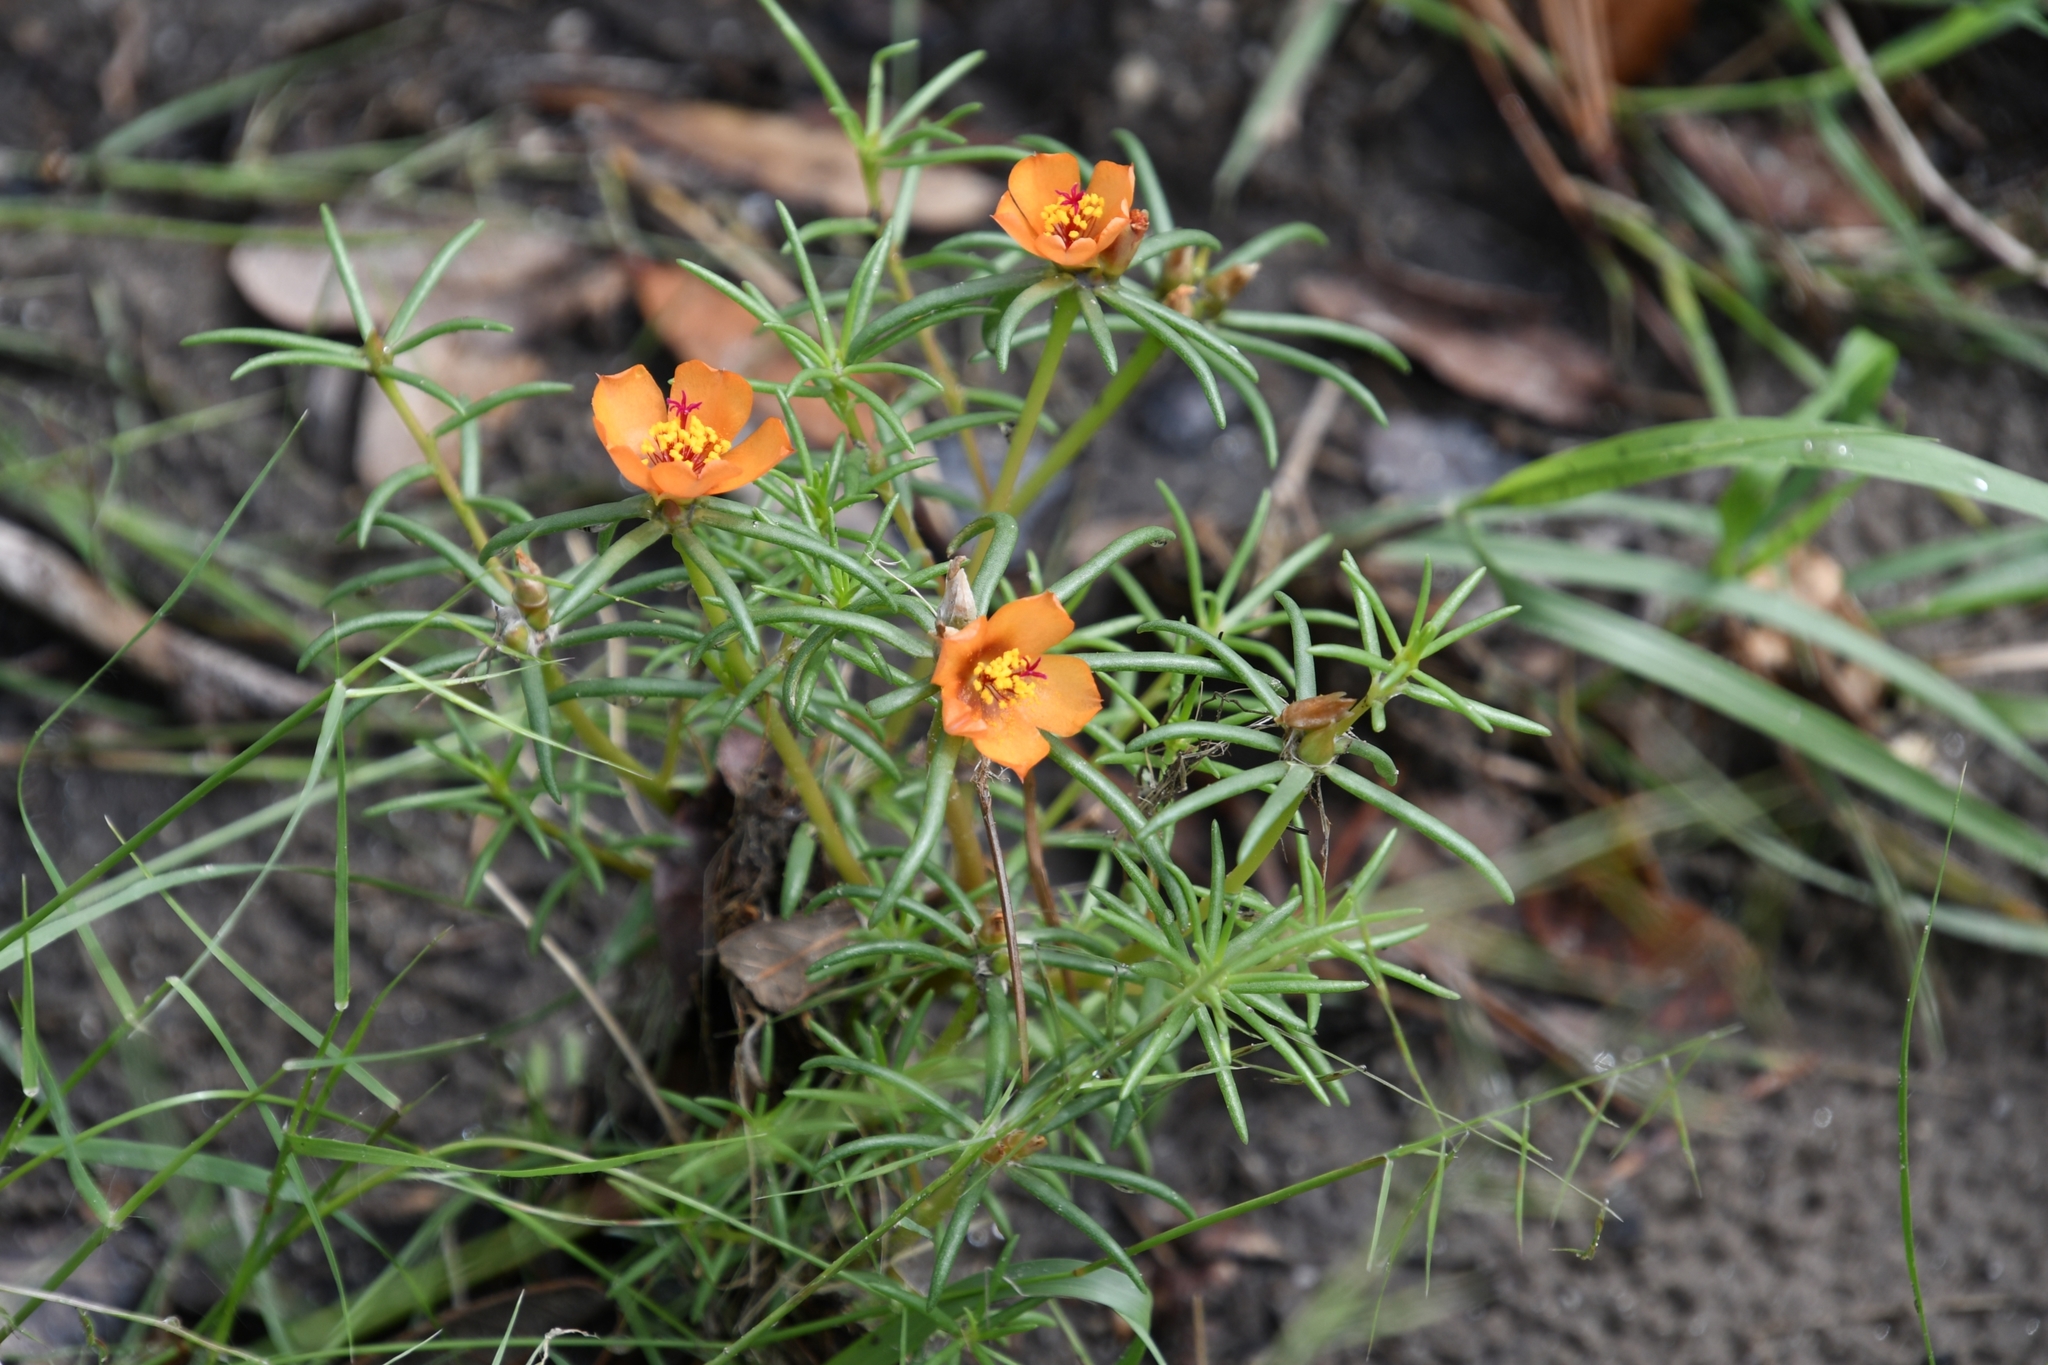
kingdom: Plantae
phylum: Tracheophyta
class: Magnoliopsida
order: Caryophyllales
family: Portulacaceae
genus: Portulaca
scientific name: Portulaca suffrutescens
